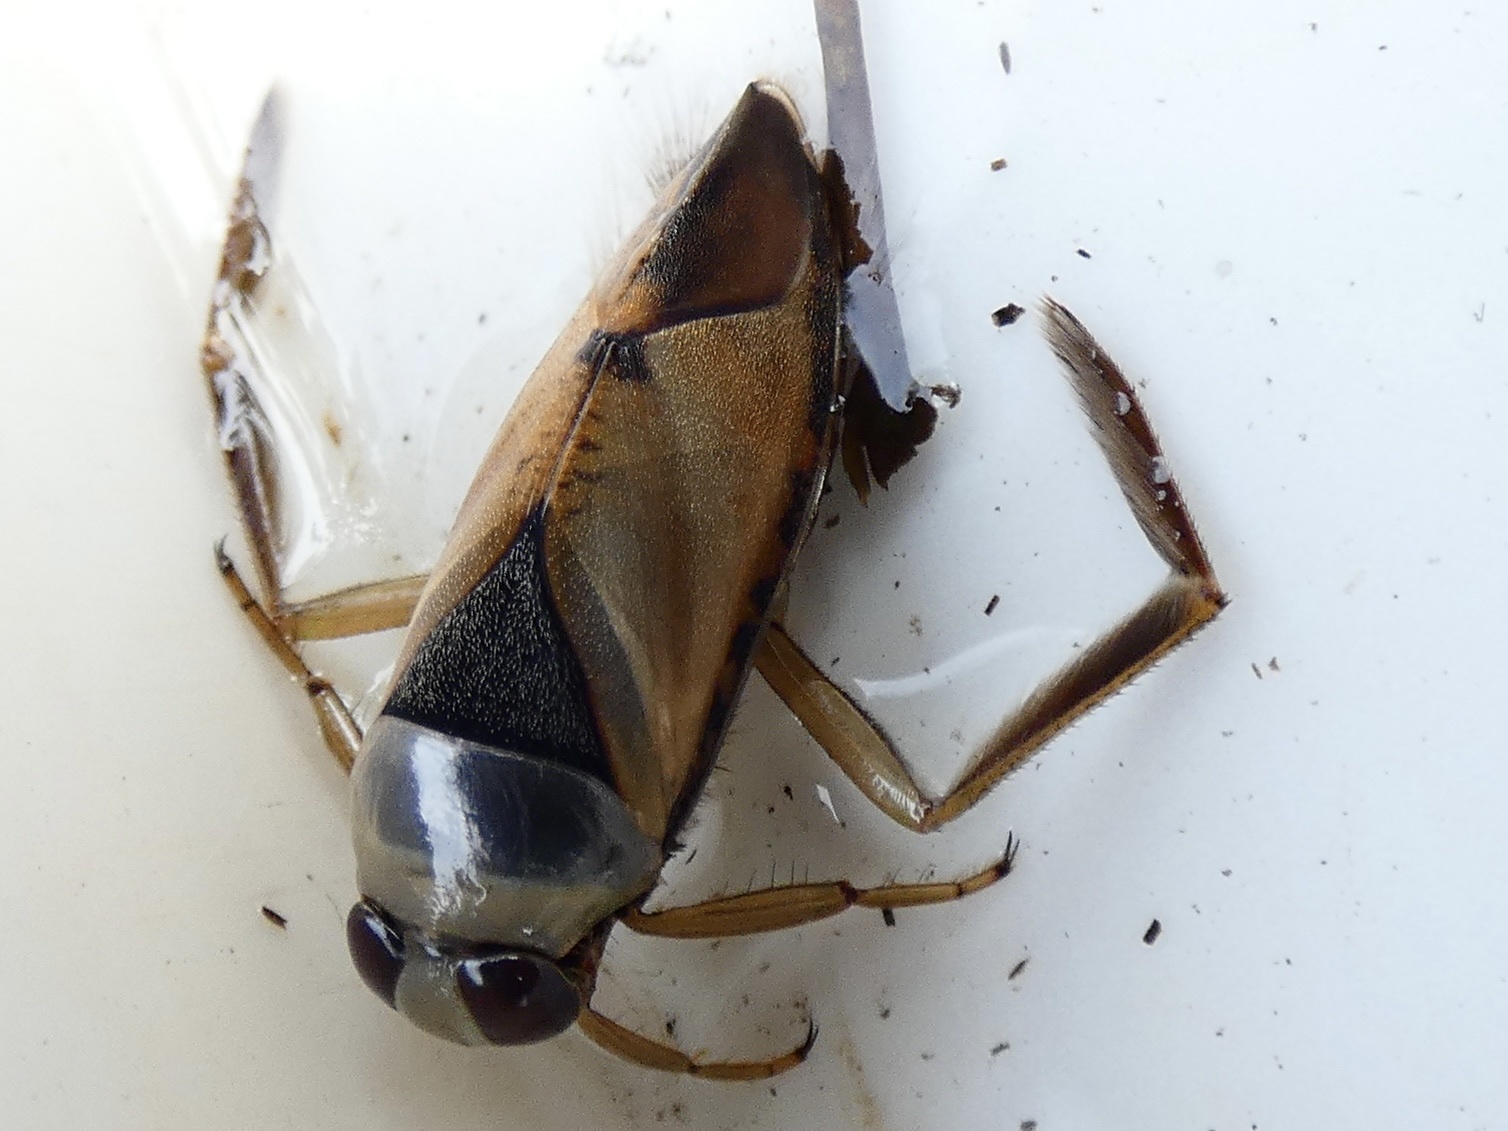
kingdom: Animalia
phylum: Arthropoda
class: Insecta
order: Hemiptera
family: Notonectidae
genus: Notonecta
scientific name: Notonecta glauca
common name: Common water-boatman
